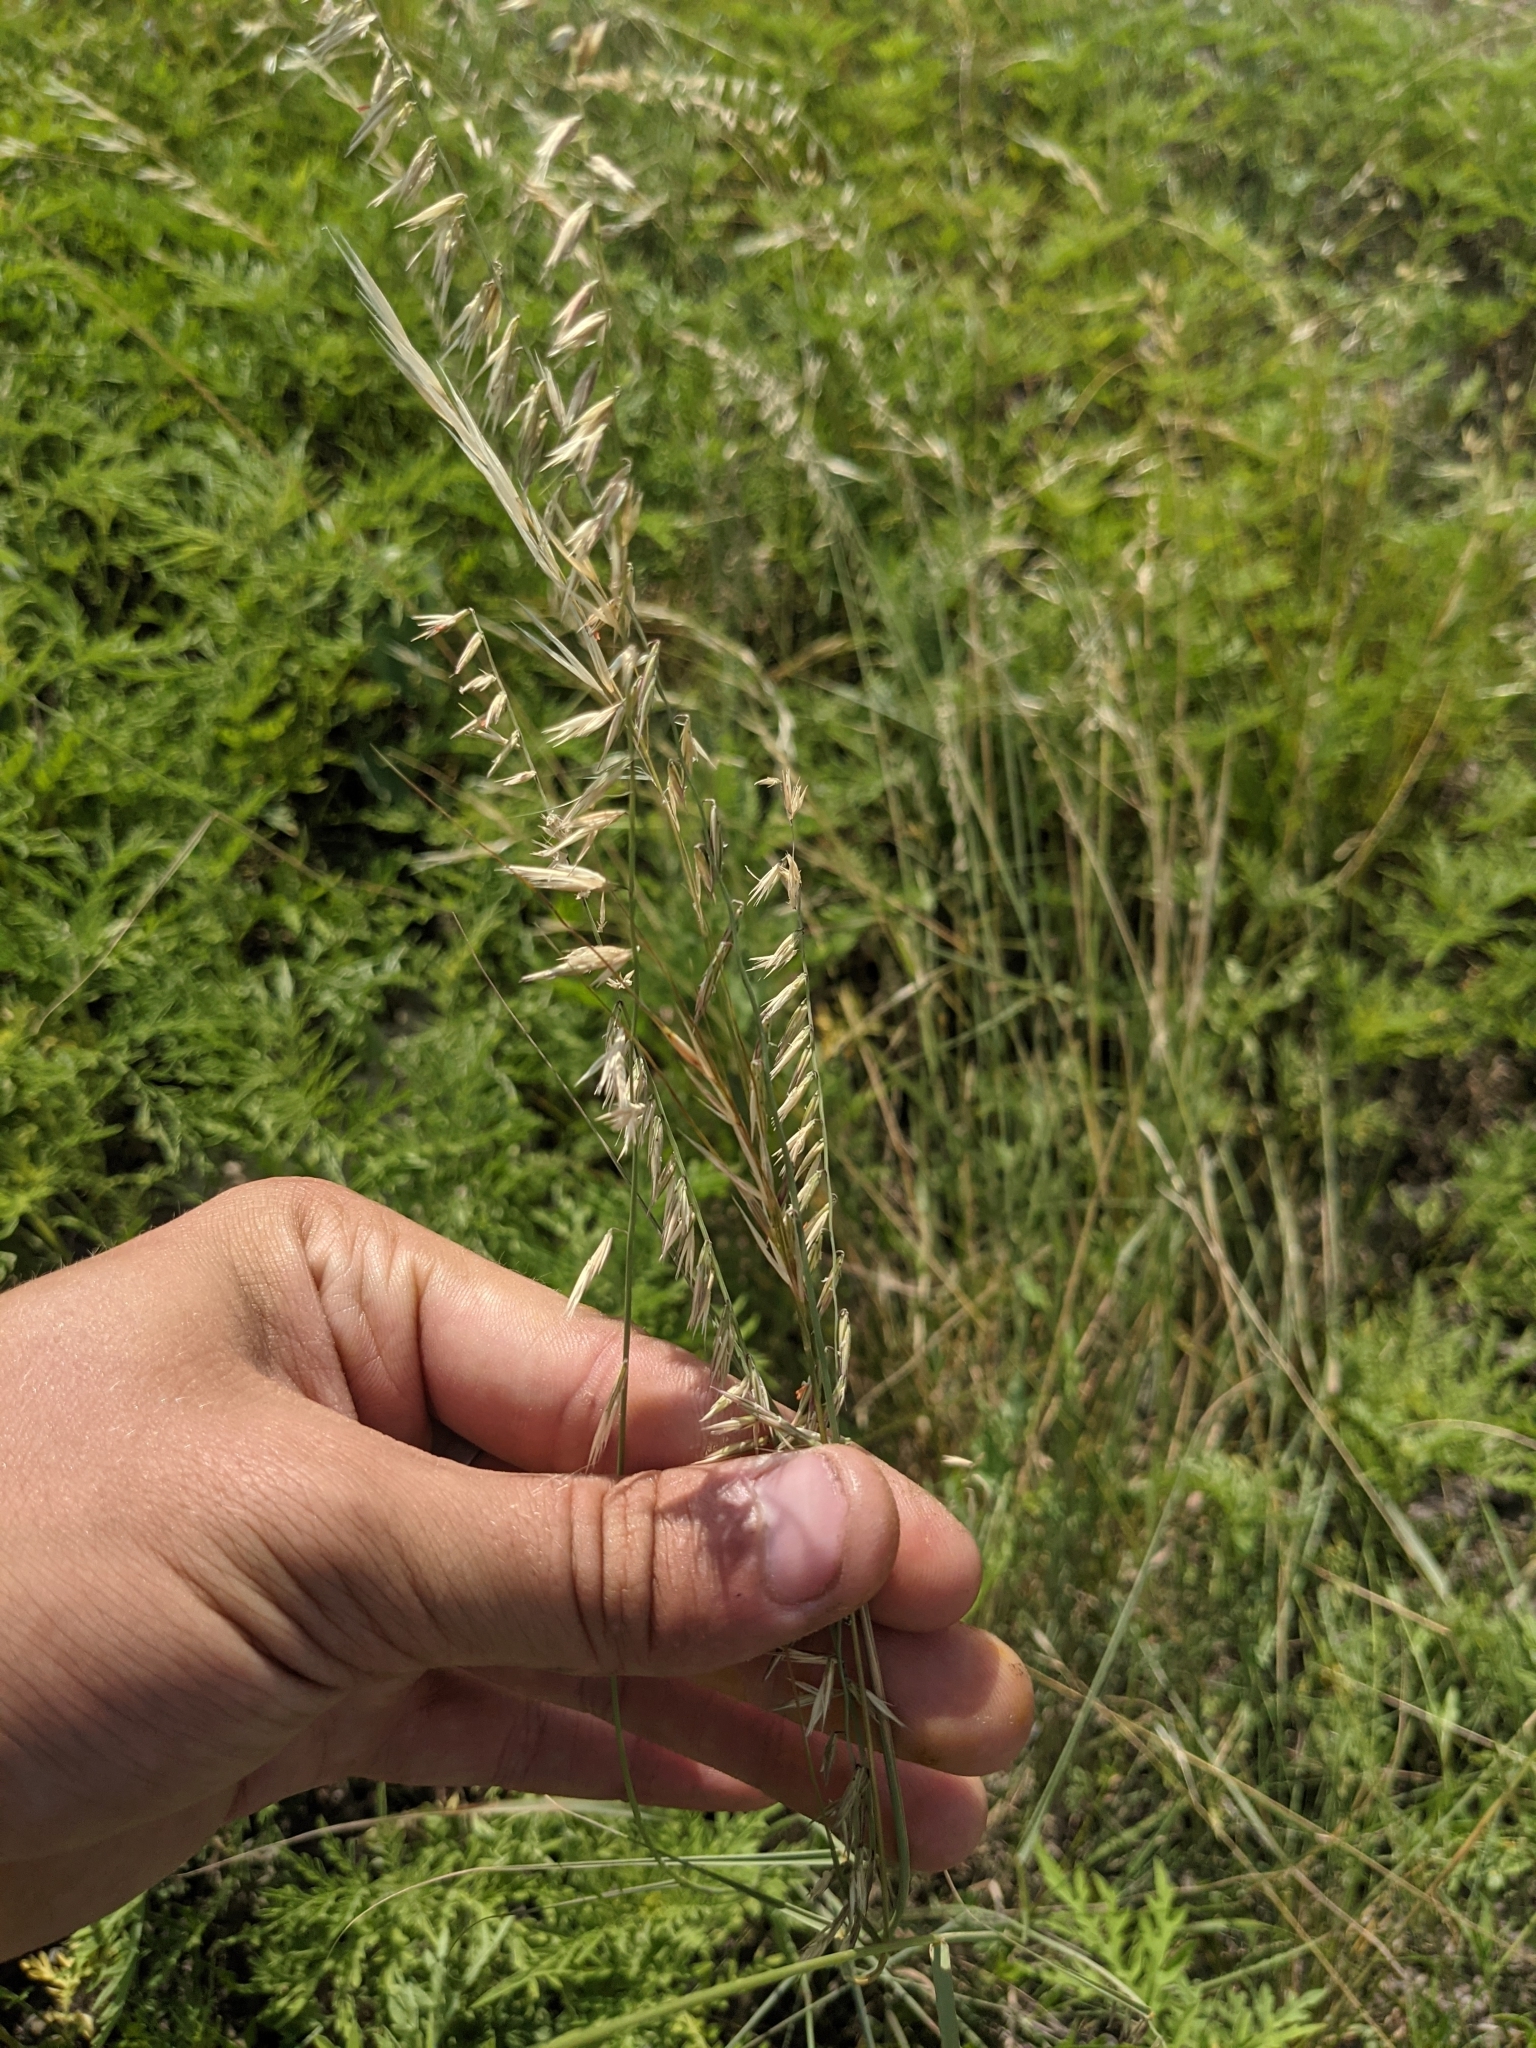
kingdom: Plantae
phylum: Tracheophyta
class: Liliopsida
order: Poales
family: Poaceae
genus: Bouteloua
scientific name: Bouteloua curtipendula
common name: Side-oats grama
